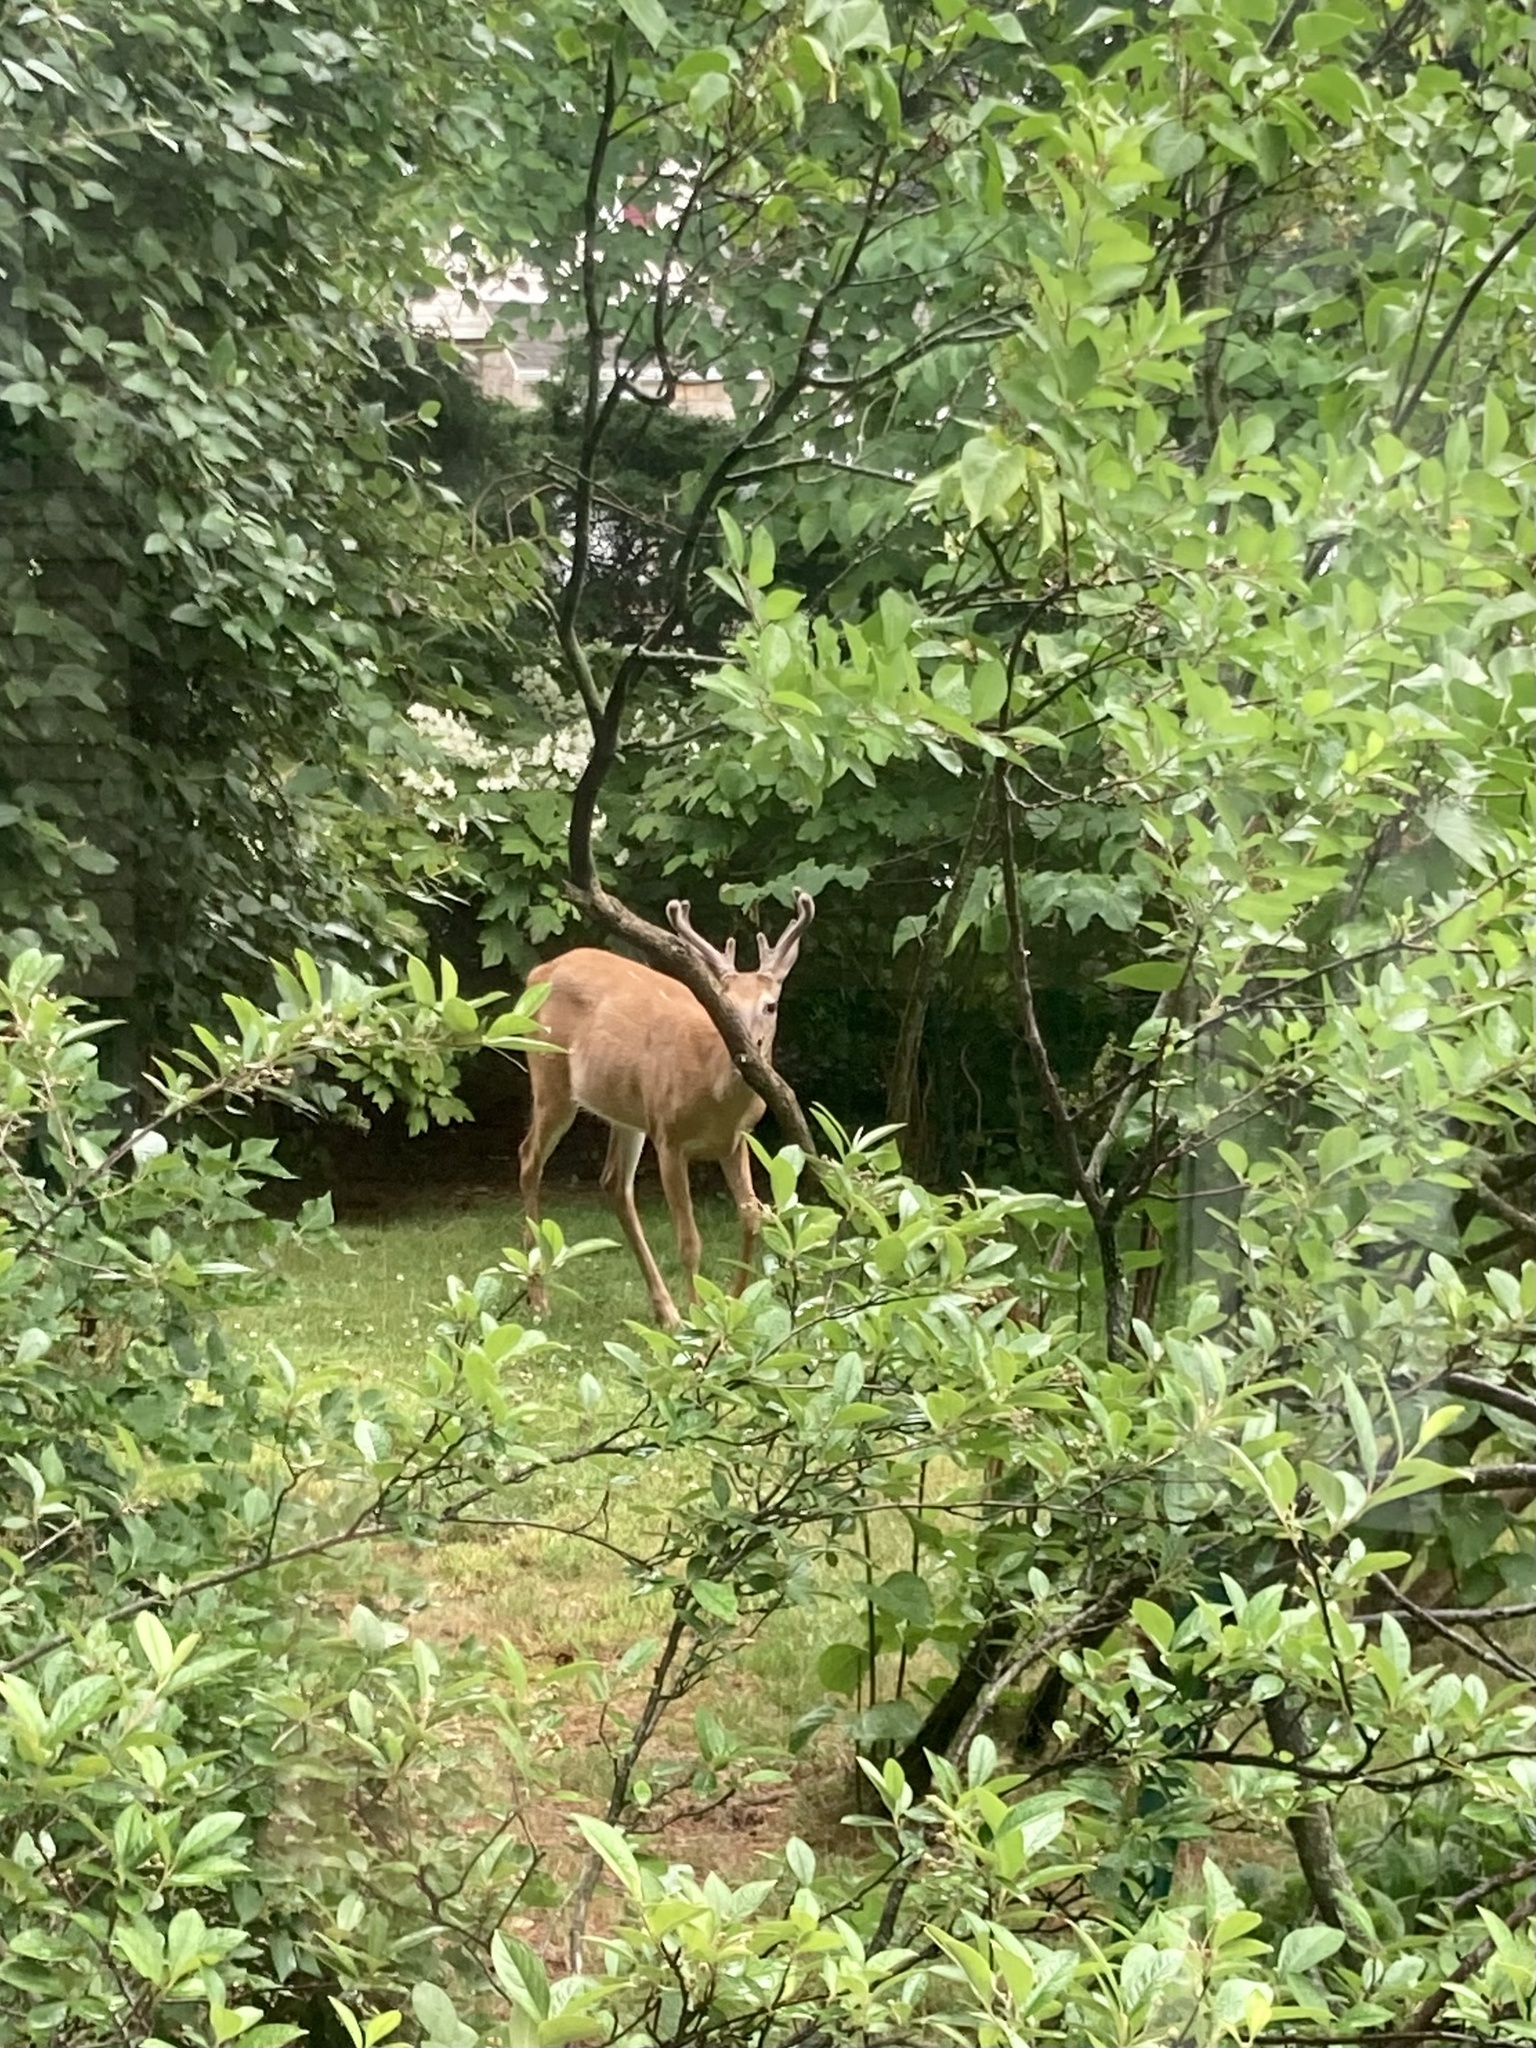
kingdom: Animalia
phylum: Chordata
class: Mammalia
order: Artiodactyla
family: Cervidae
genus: Odocoileus
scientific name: Odocoileus virginianus
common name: White-tailed deer
